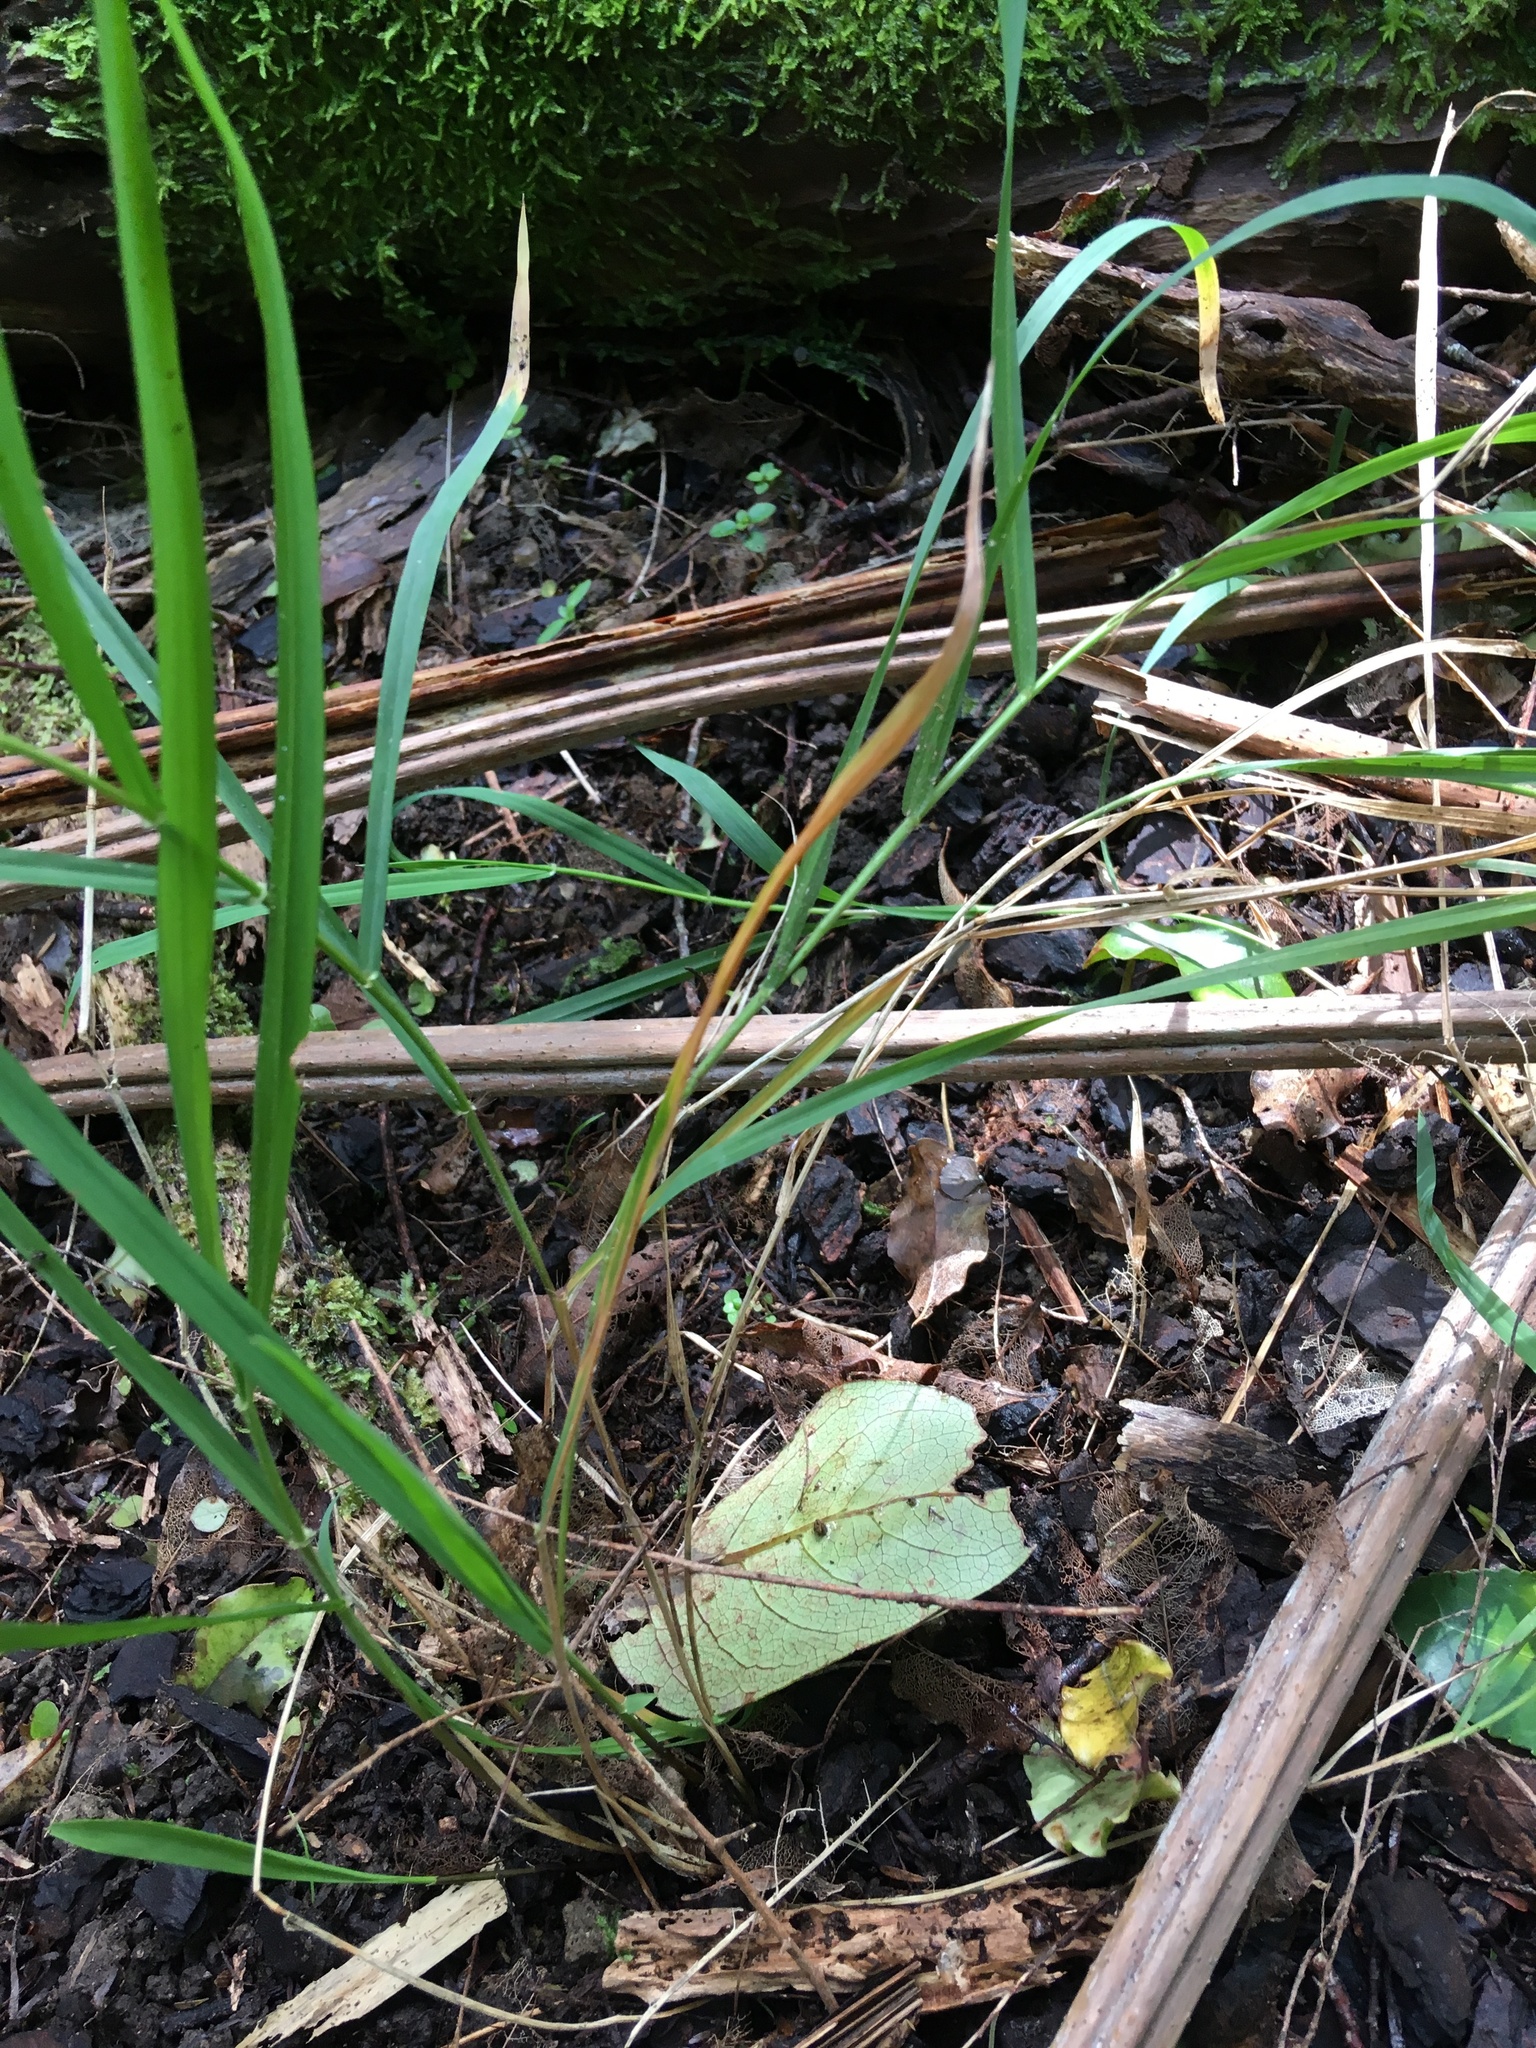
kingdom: Plantae
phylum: Tracheophyta
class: Liliopsida
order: Poales
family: Poaceae
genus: Ehrharta
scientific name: Ehrharta erecta
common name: Panic veldtgrass
